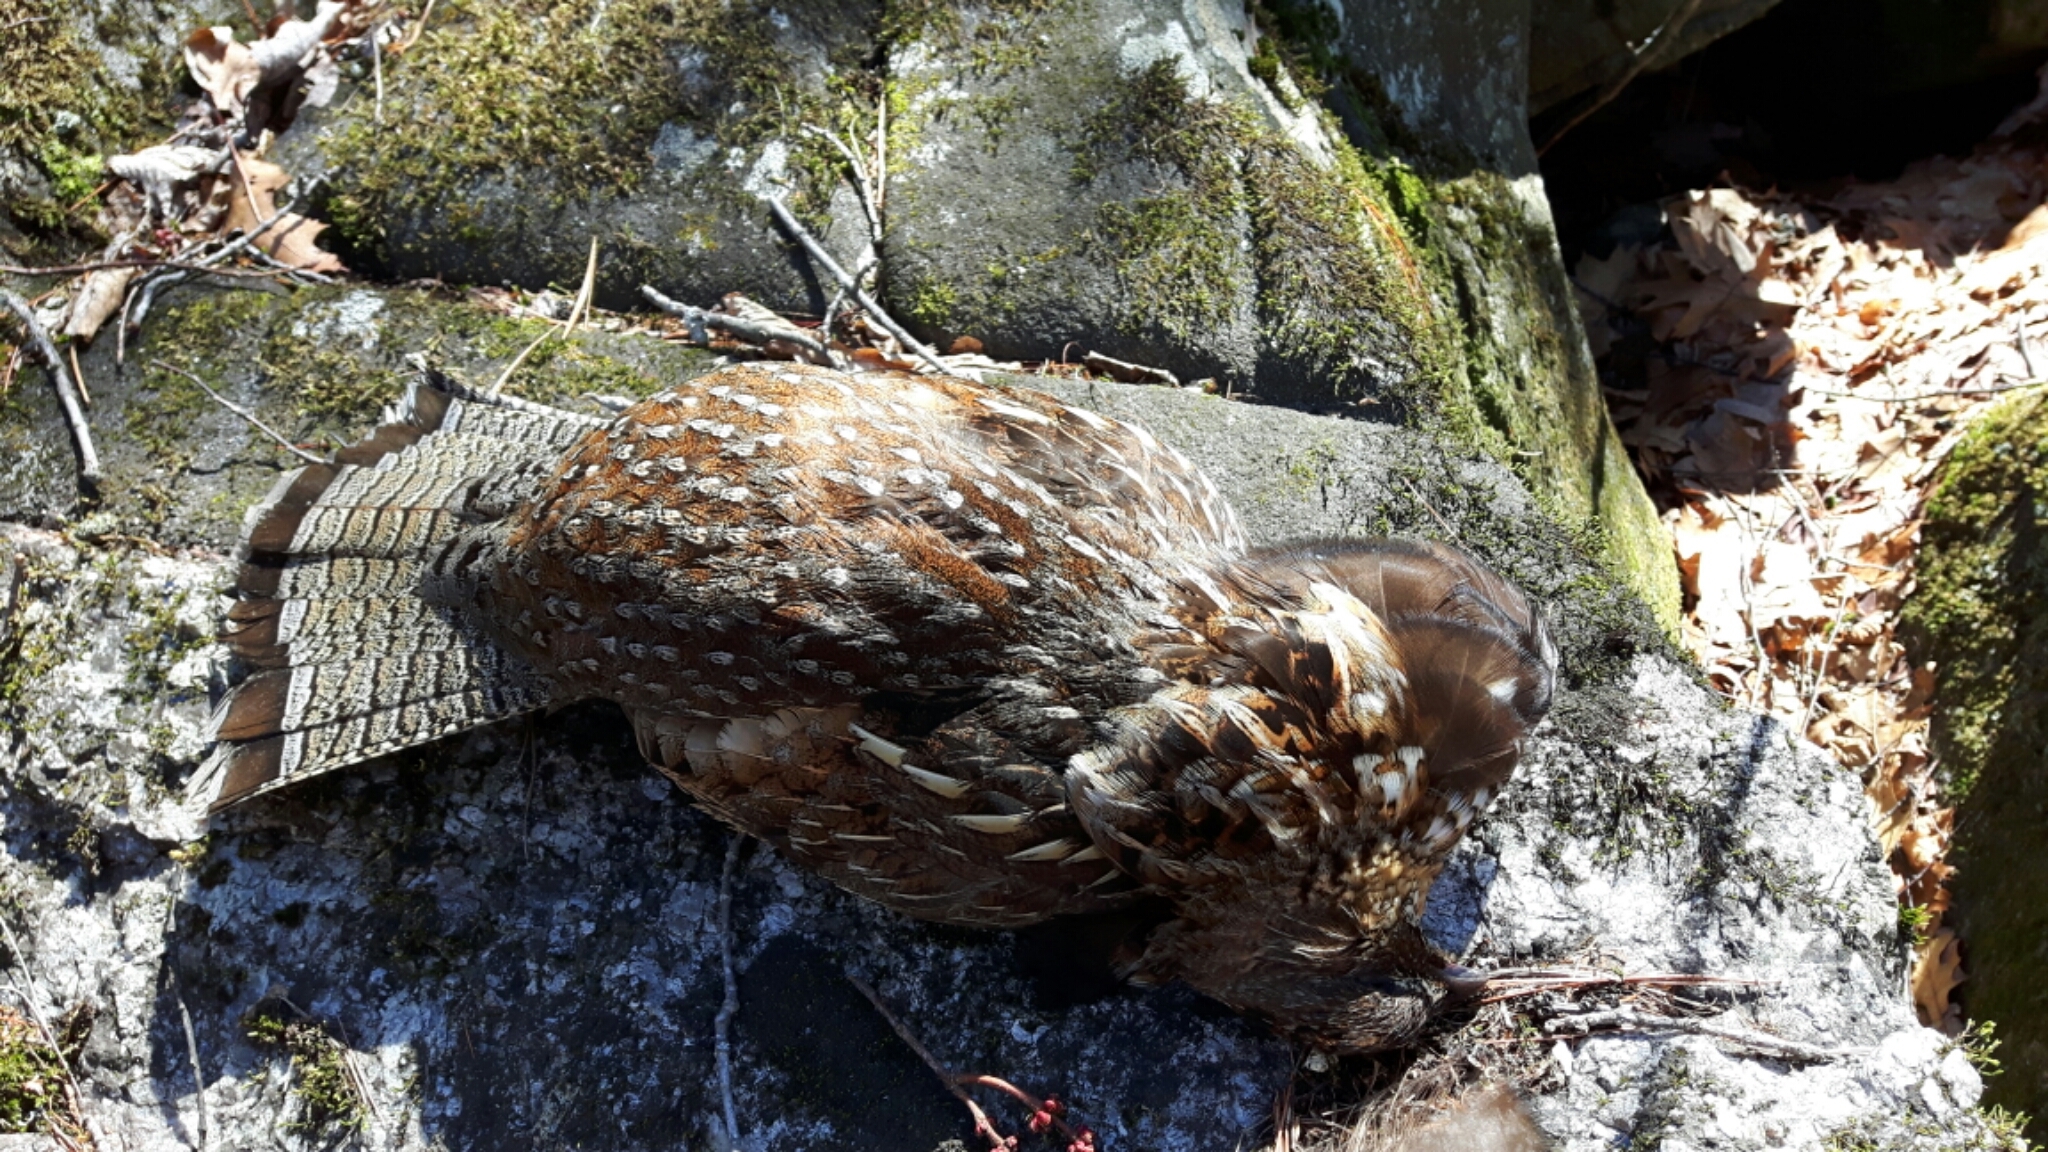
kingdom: Animalia
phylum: Chordata
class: Aves
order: Galliformes
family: Phasianidae
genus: Bonasa
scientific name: Bonasa umbellus
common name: Ruffed grouse
